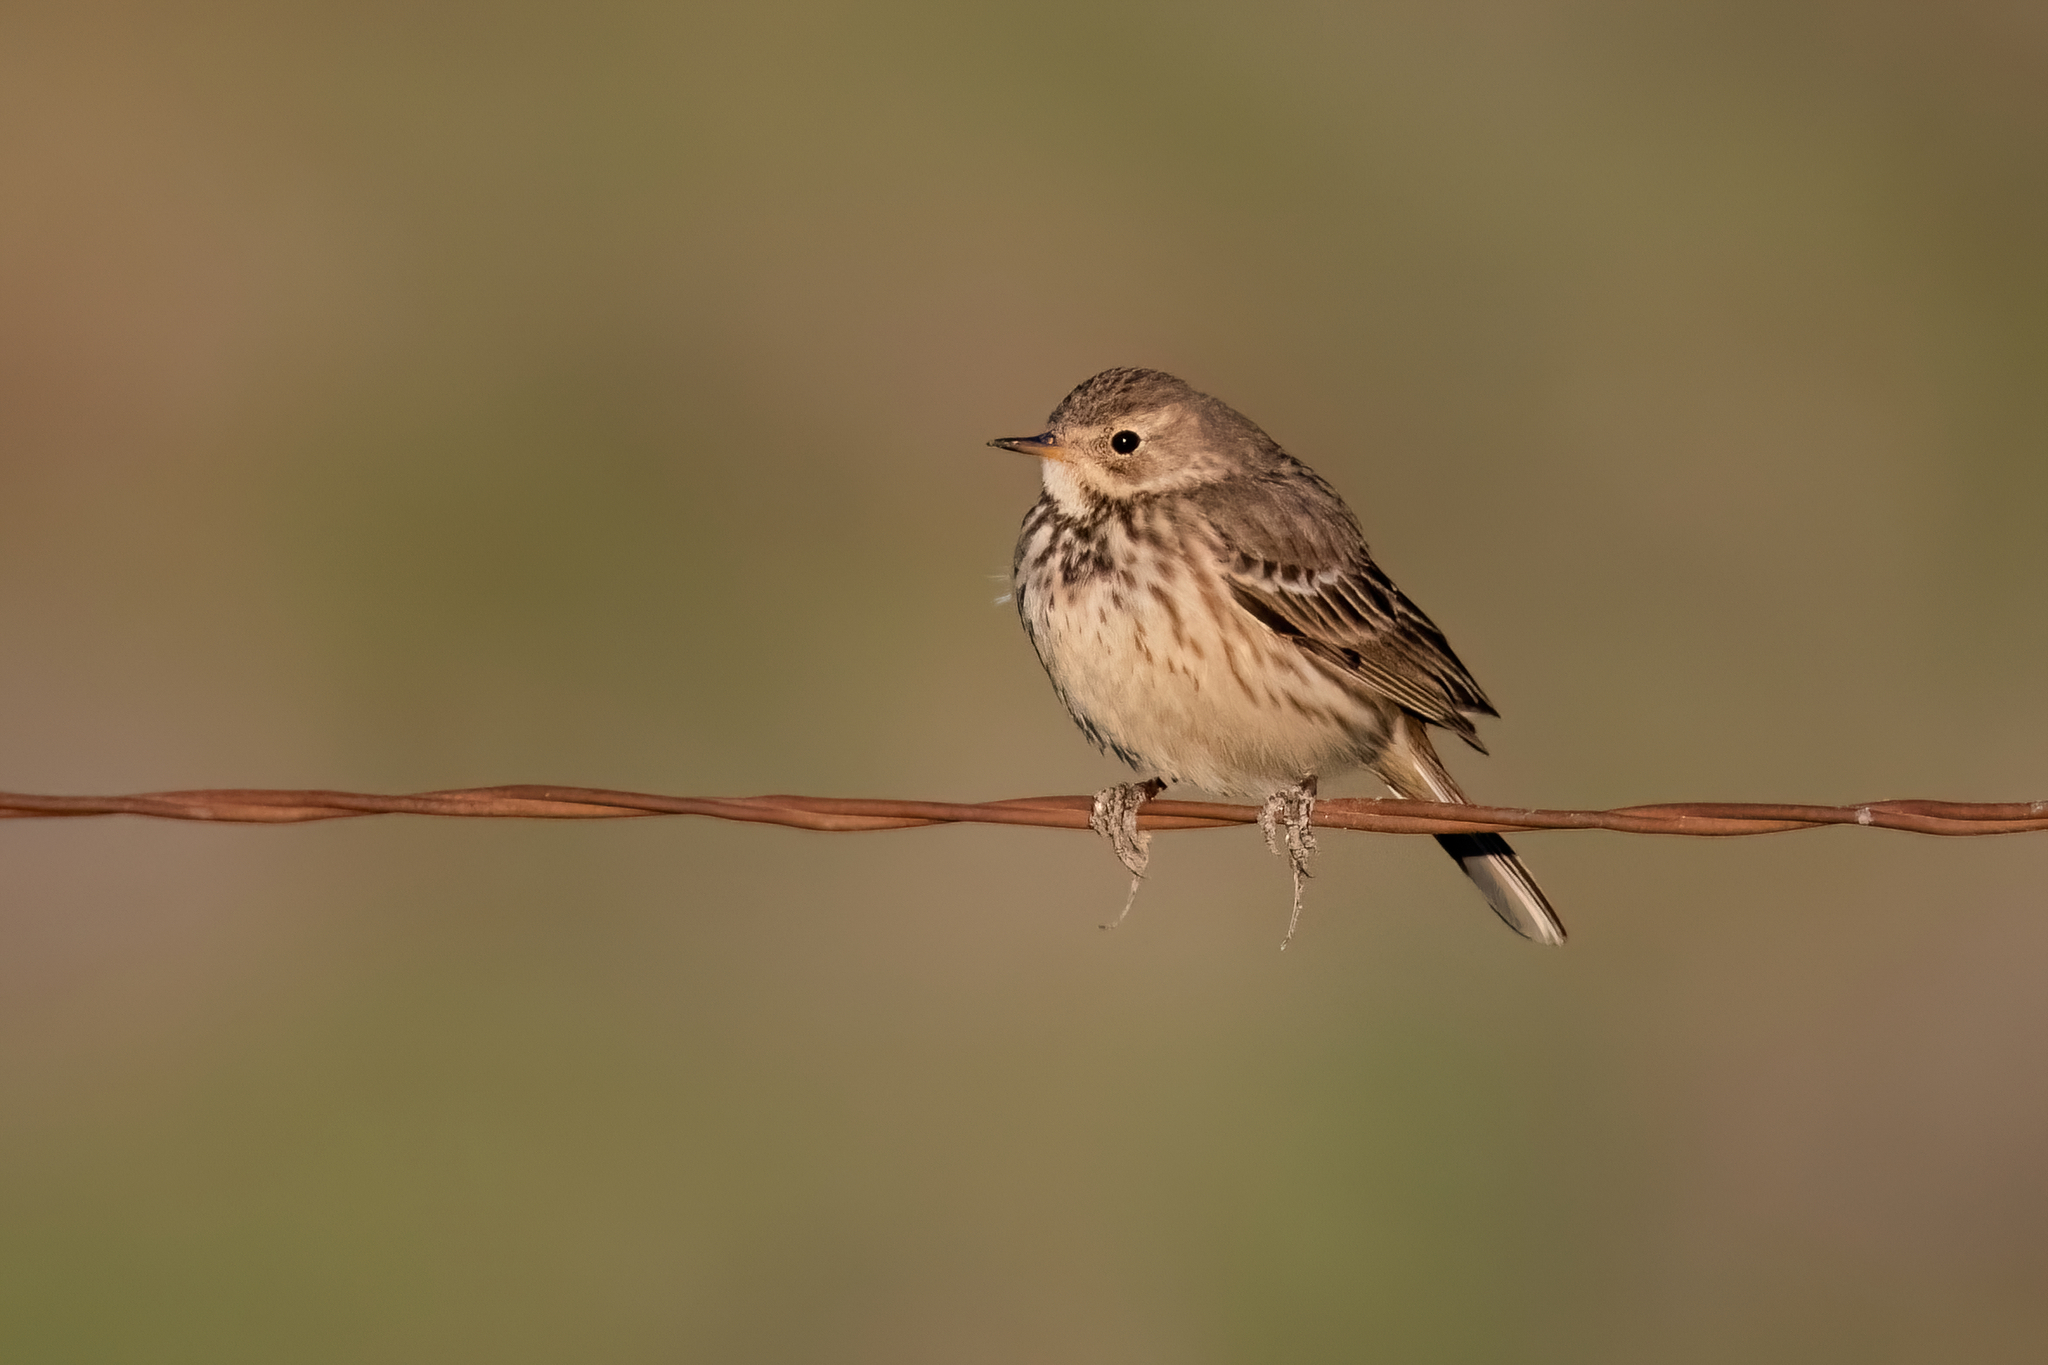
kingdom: Animalia
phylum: Chordata
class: Aves
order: Passeriformes
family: Motacillidae
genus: Anthus
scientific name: Anthus rubescens
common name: Buff-bellied pipit
